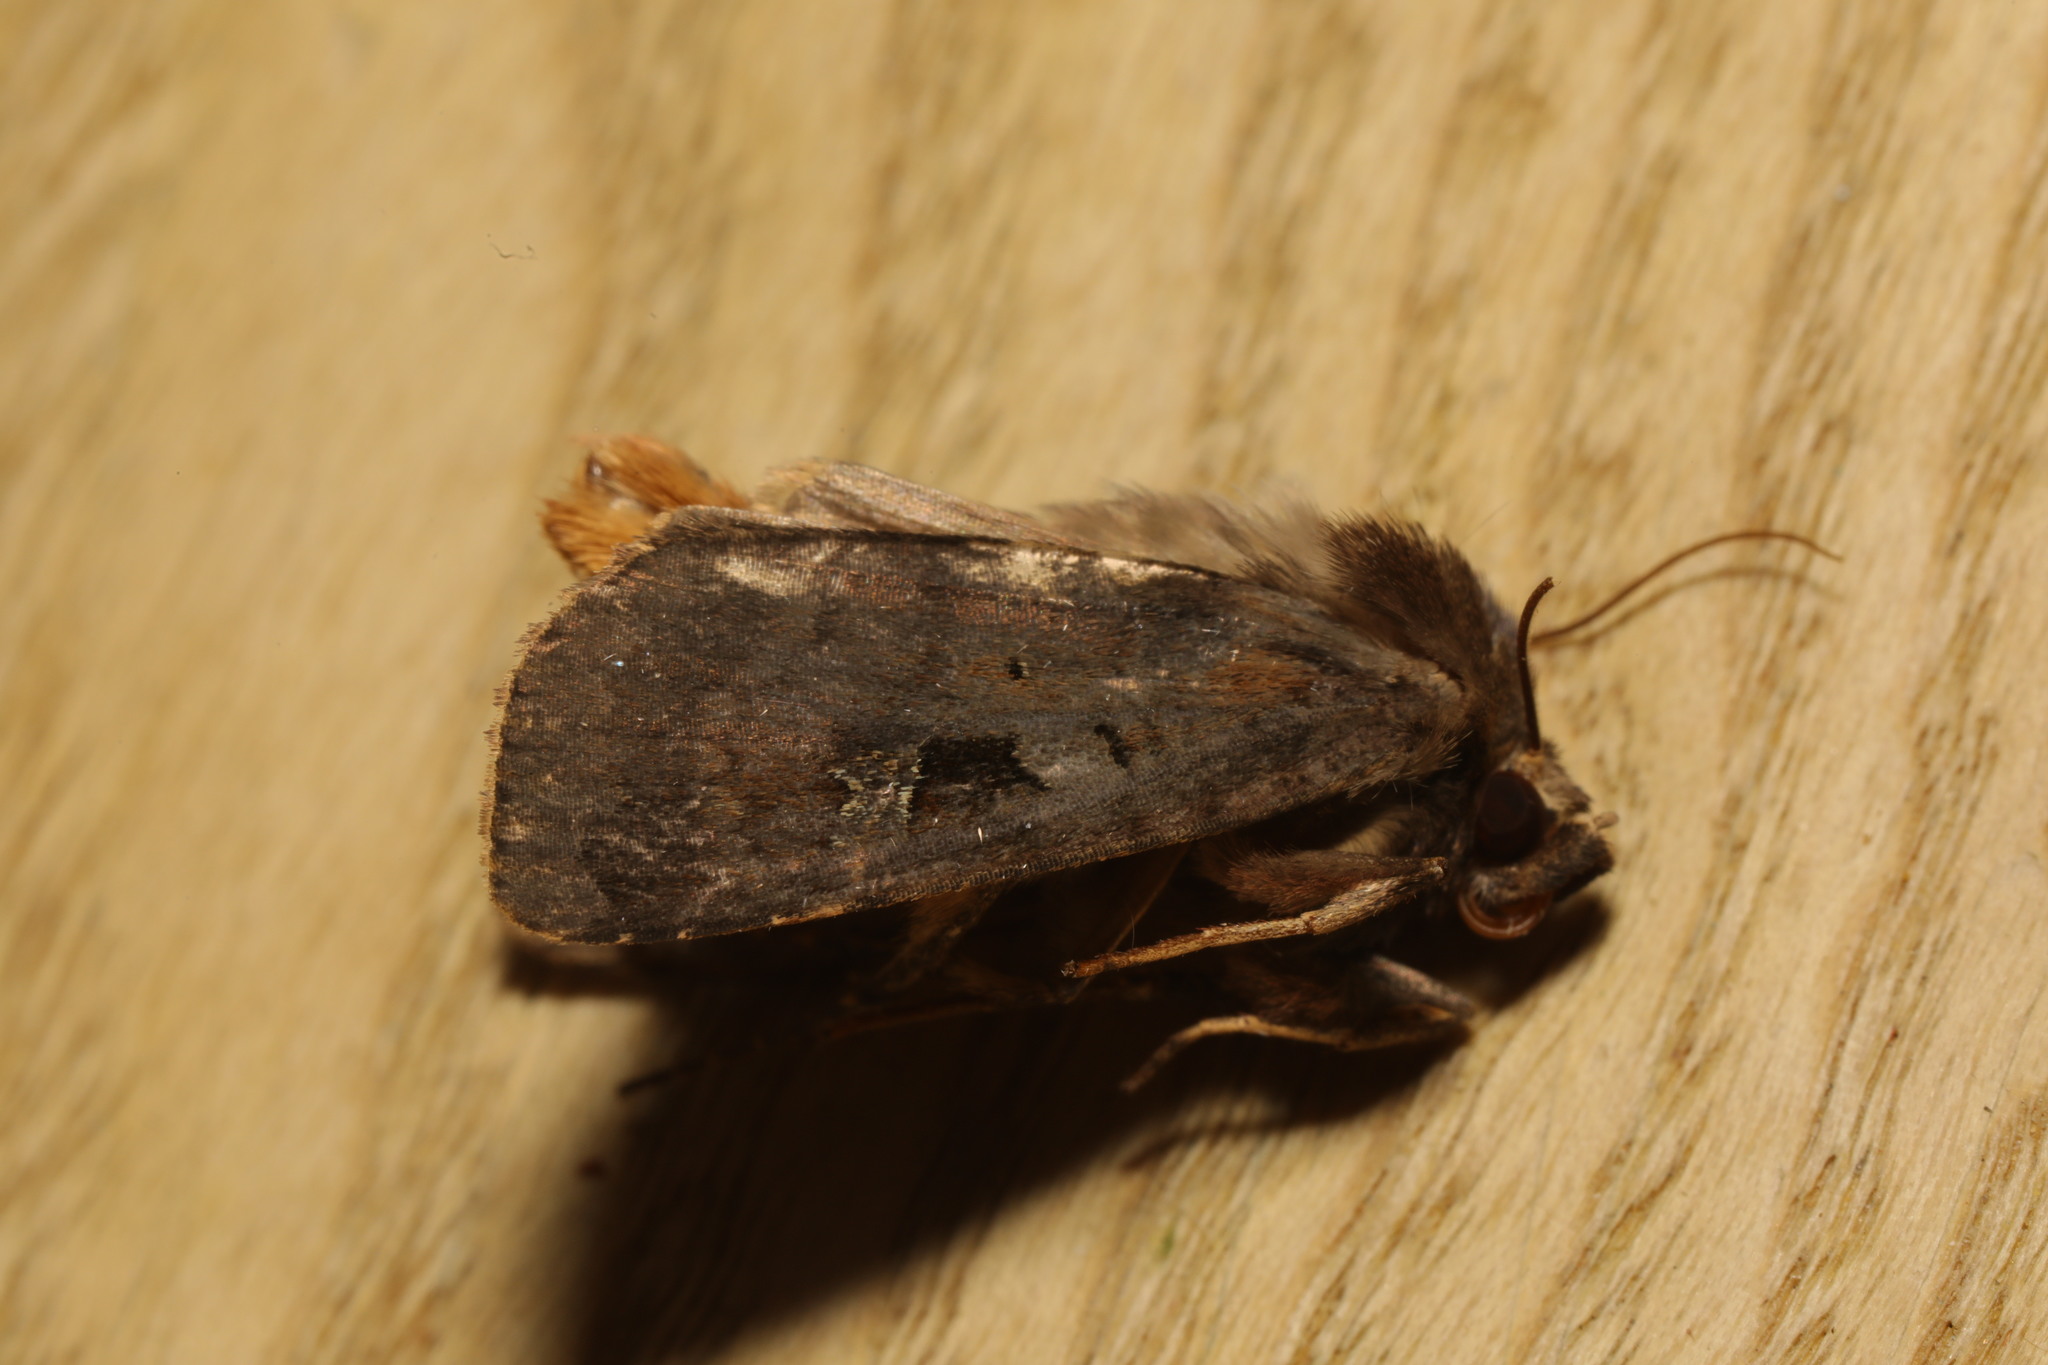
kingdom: Animalia
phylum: Arthropoda
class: Insecta
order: Lepidoptera
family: Noctuidae
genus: Diarsia
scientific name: Diarsia brunnea
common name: Purple clay
